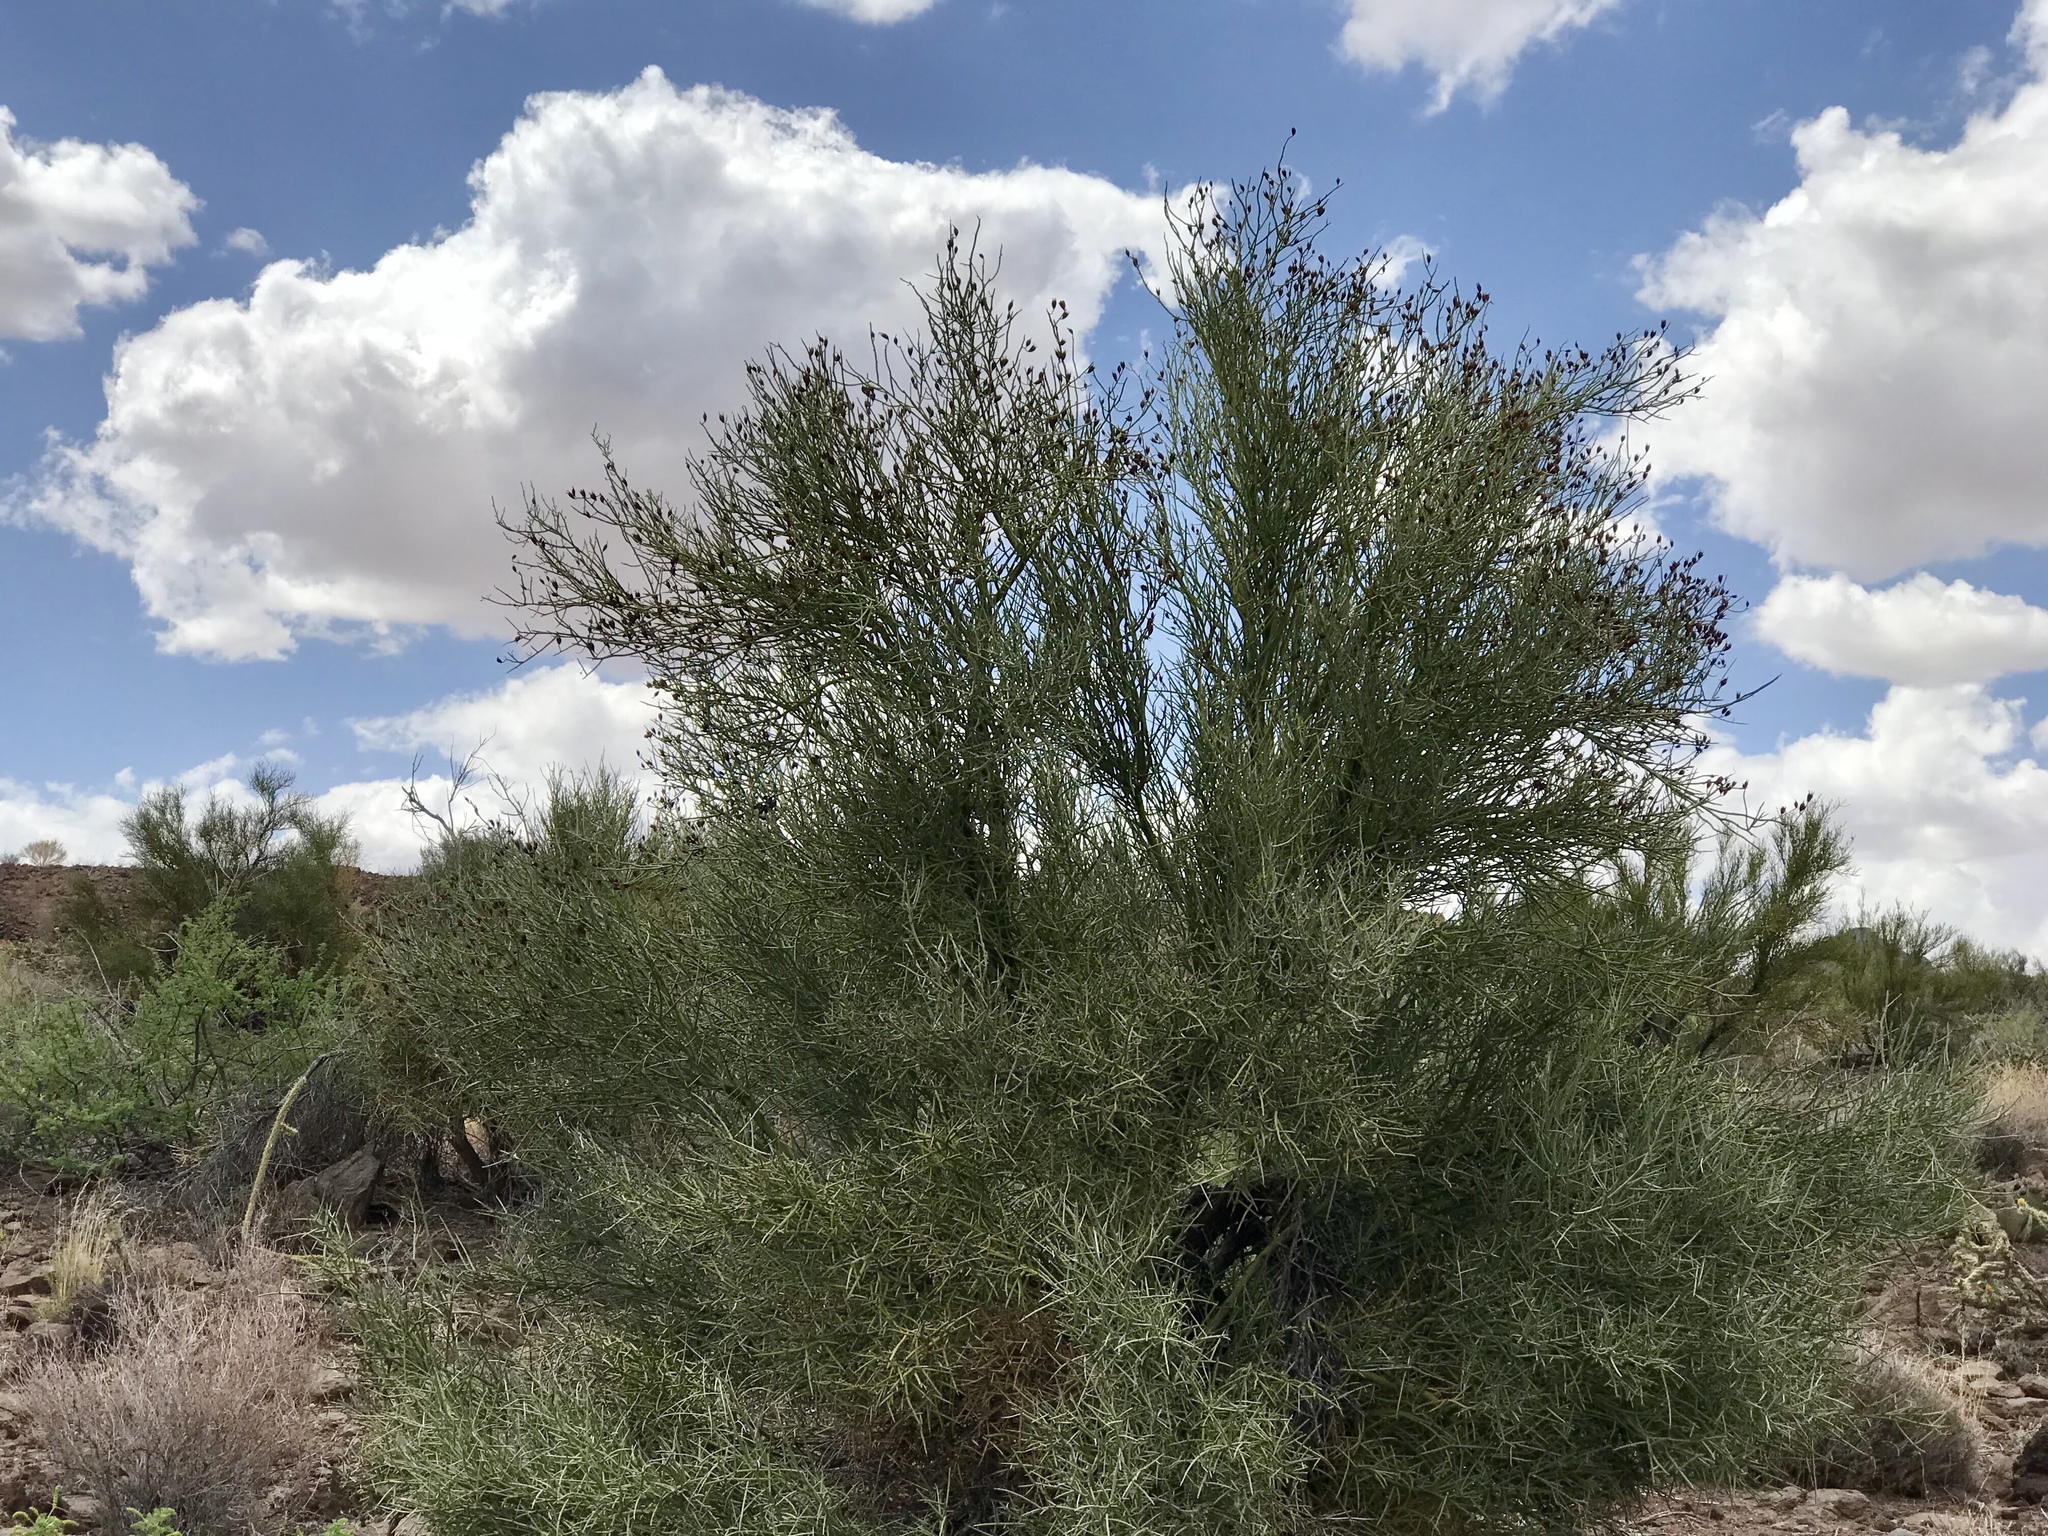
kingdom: Plantae
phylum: Tracheophyta
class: Magnoliopsida
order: Celastrales
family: Celastraceae
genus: Canotia
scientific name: Canotia holacantha
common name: Crucifixion thorns
